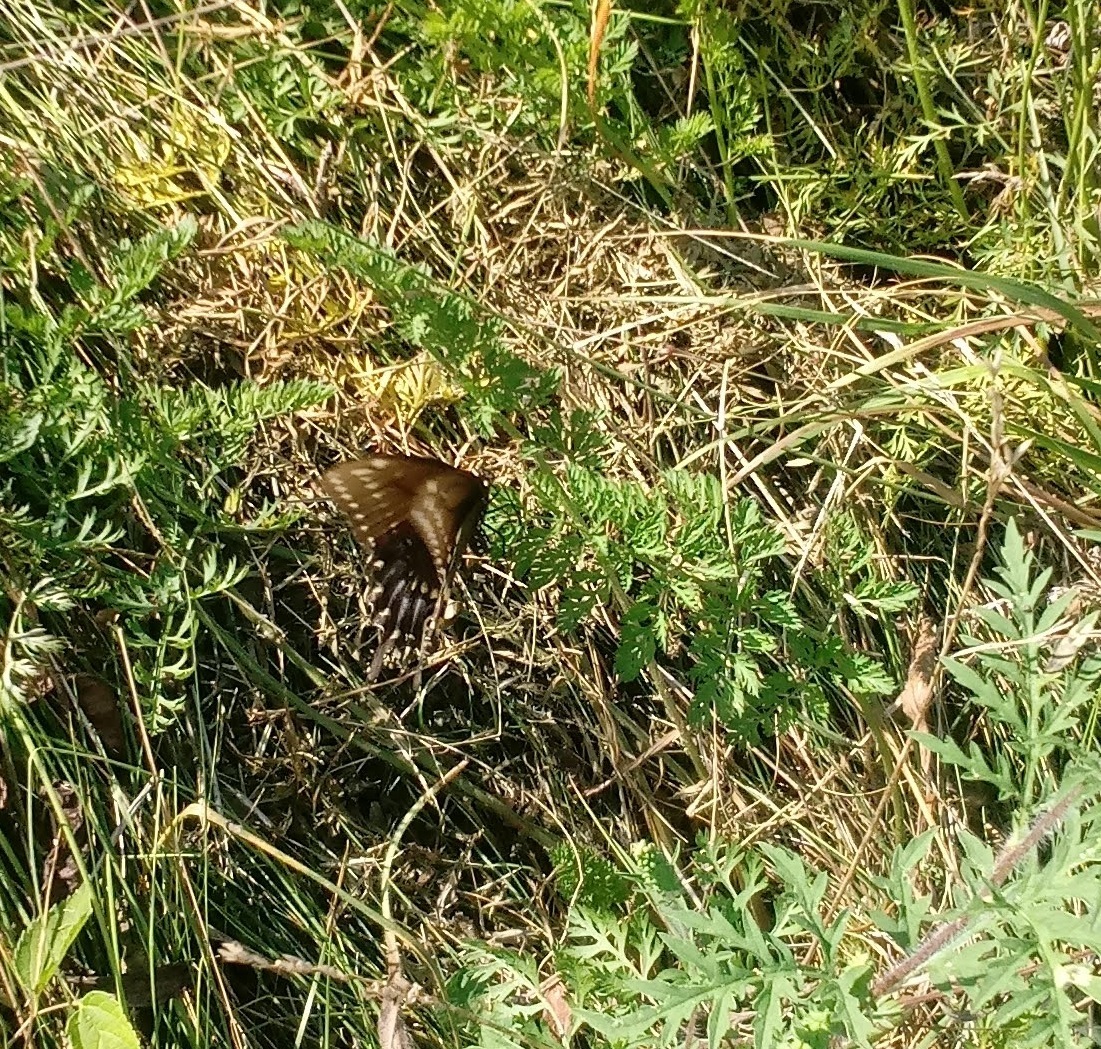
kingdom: Animalia
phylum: Arthropoda
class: Insecta
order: Lepidoptera
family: Papilionidae
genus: Papilio
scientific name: Papilio polyxenes
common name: Black swallowtail
